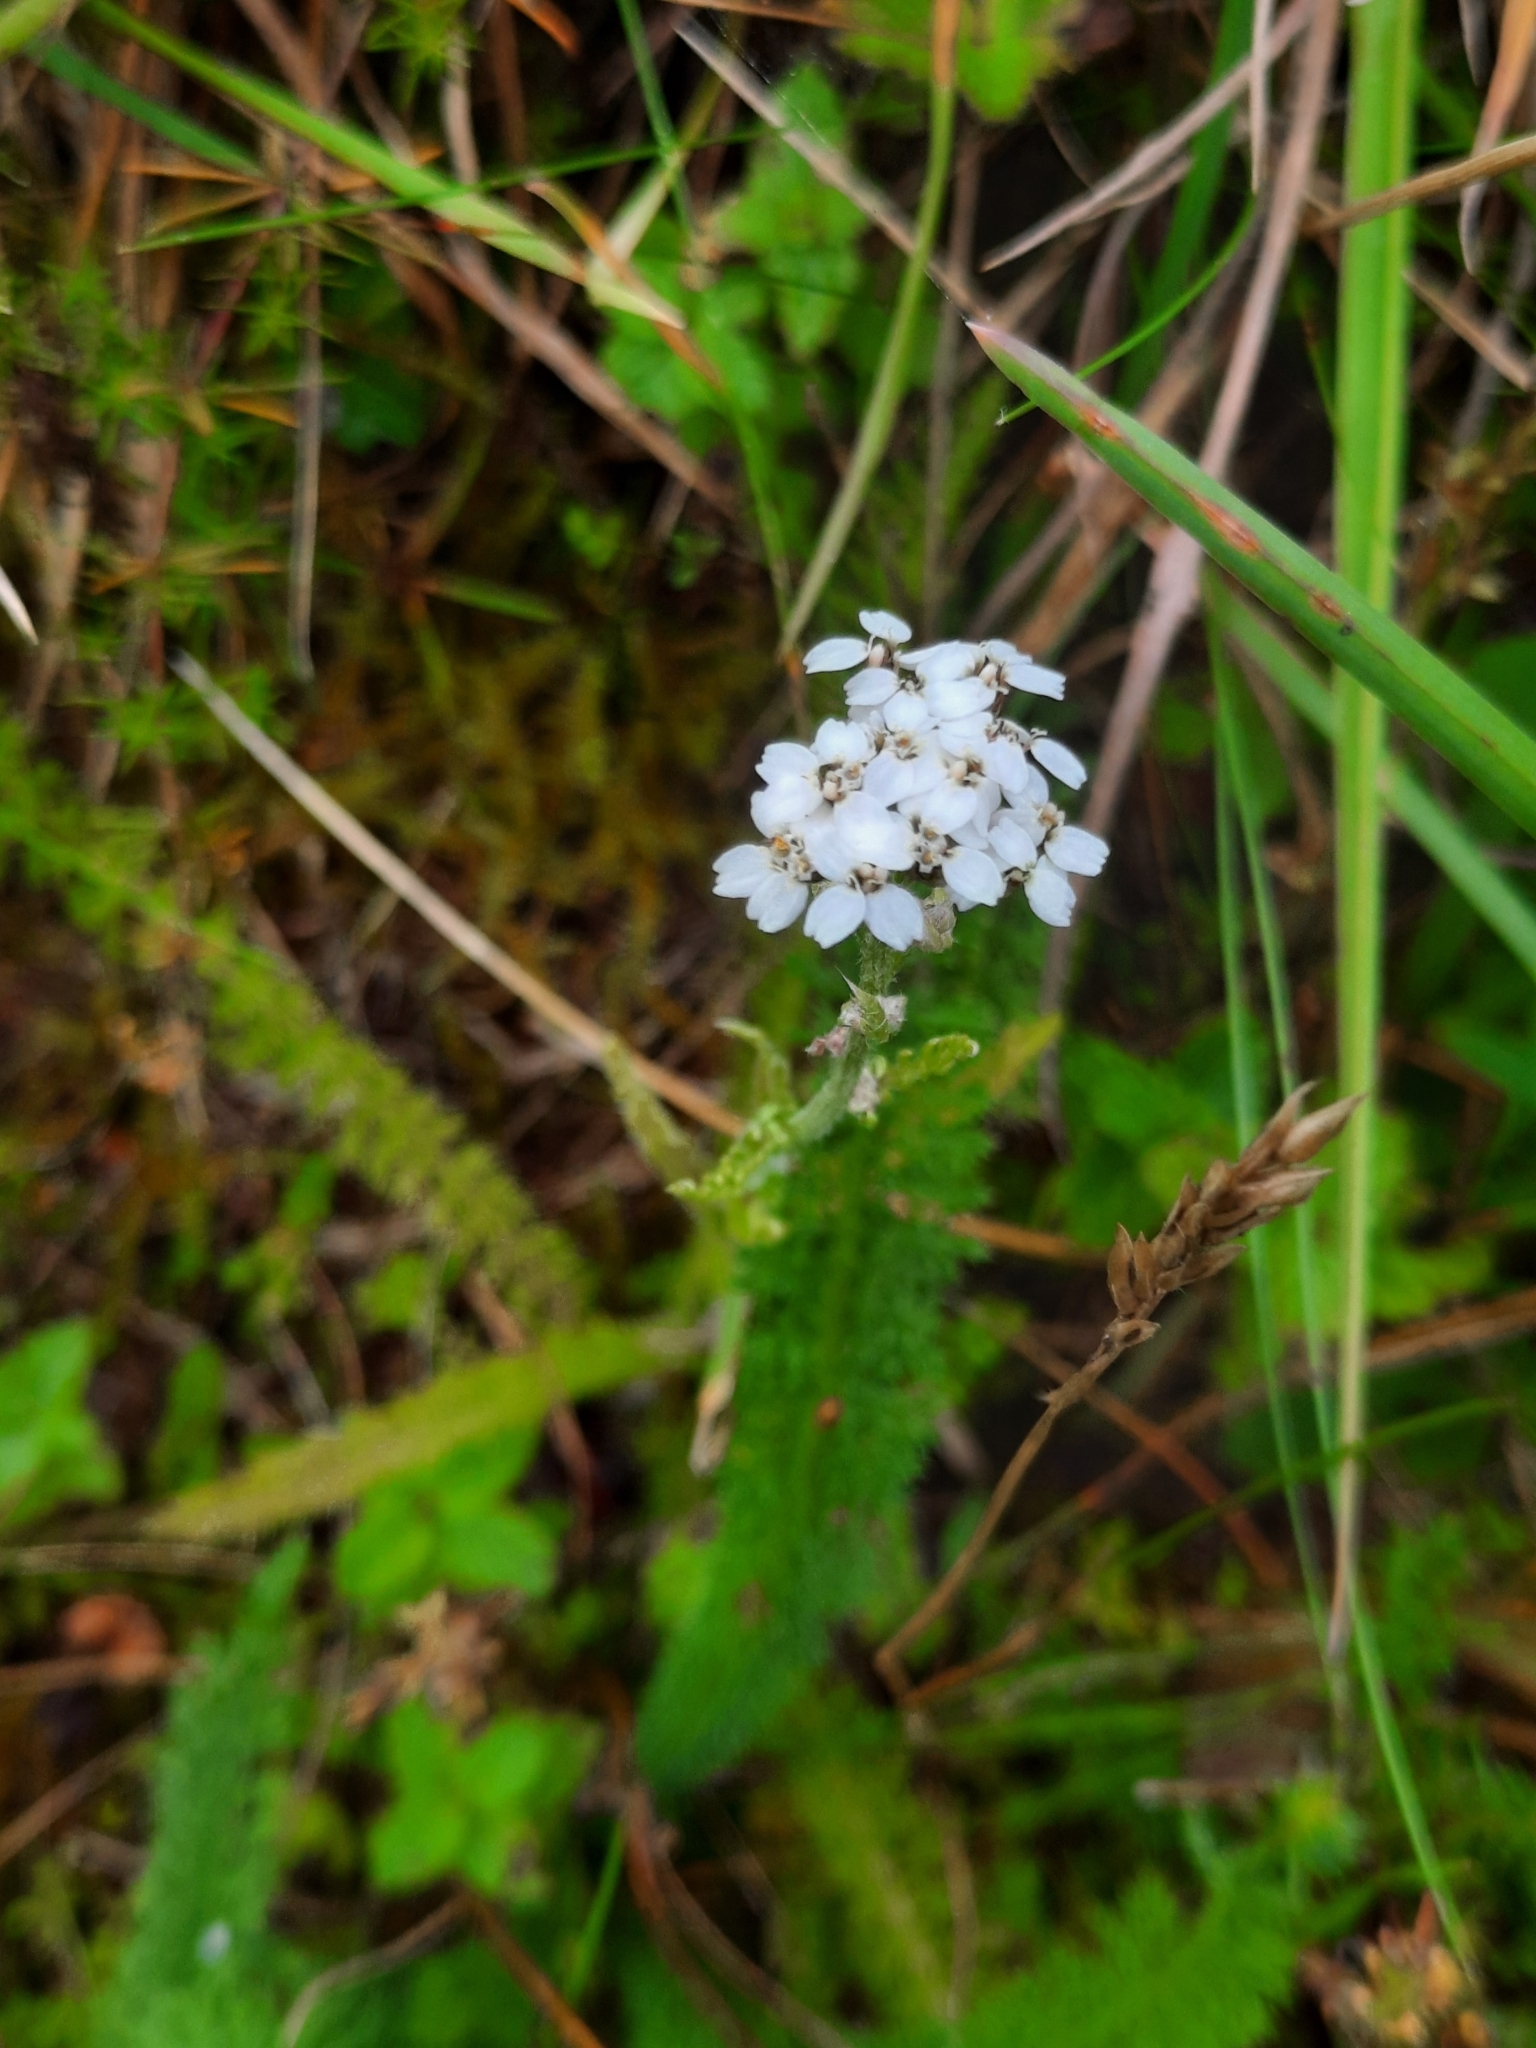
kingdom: Plantae
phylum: Tracheophyta
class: Magnoliopsida
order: Asterales
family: Asteraceae
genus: Achillea
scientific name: Achillea millefolium
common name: Yarrow
